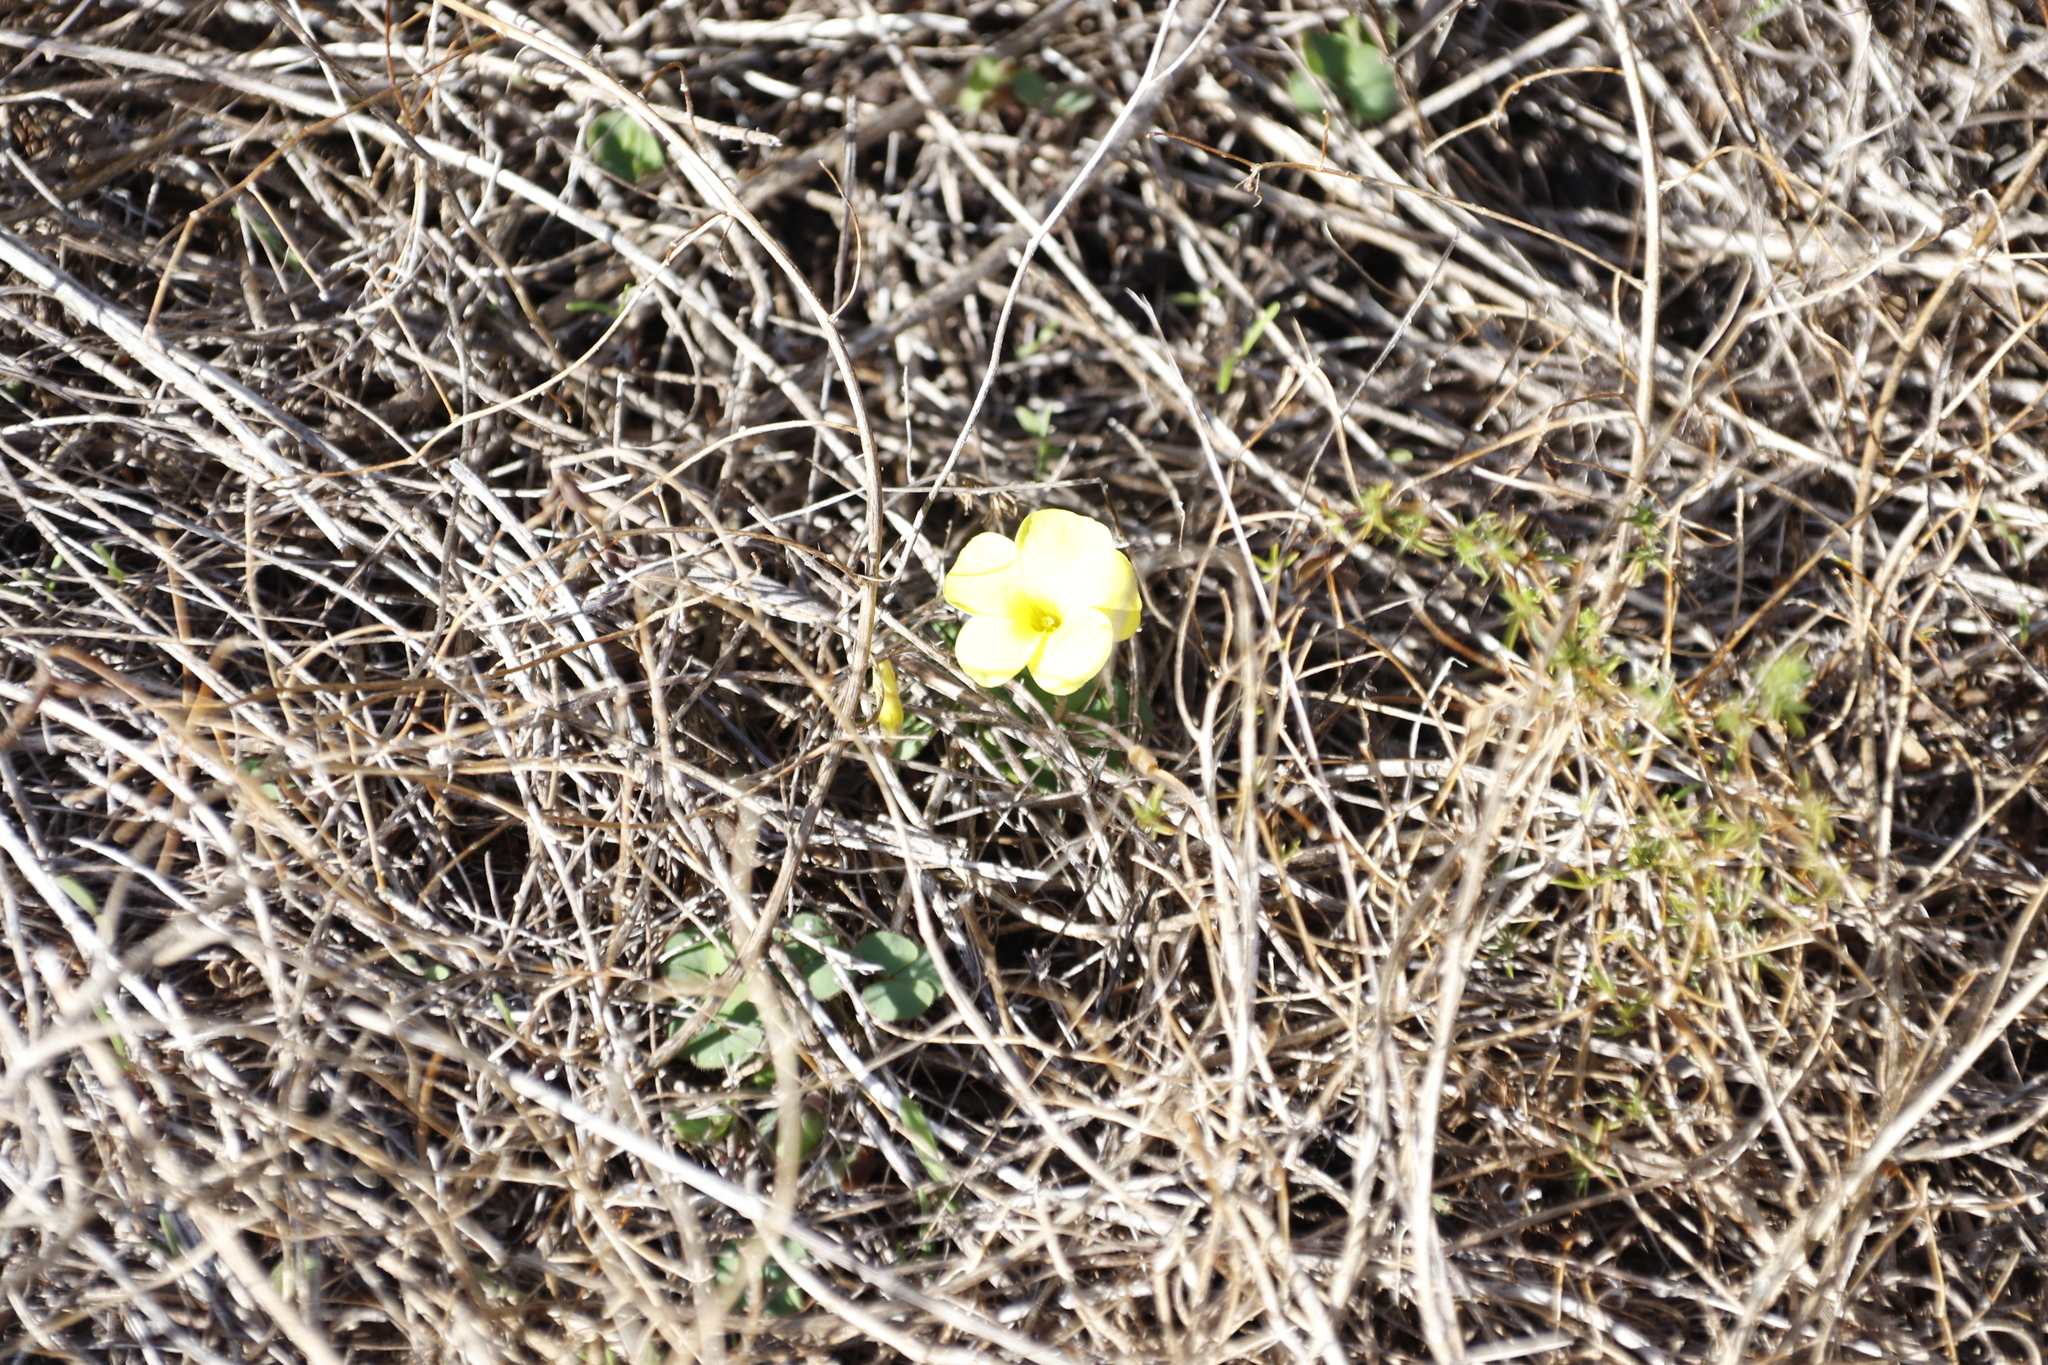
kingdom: Plantae
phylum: Tracheophyta
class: Magnoliopsida
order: Oxalidales
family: Oxalidaceae
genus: Oxalis
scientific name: Oxalis luteola
